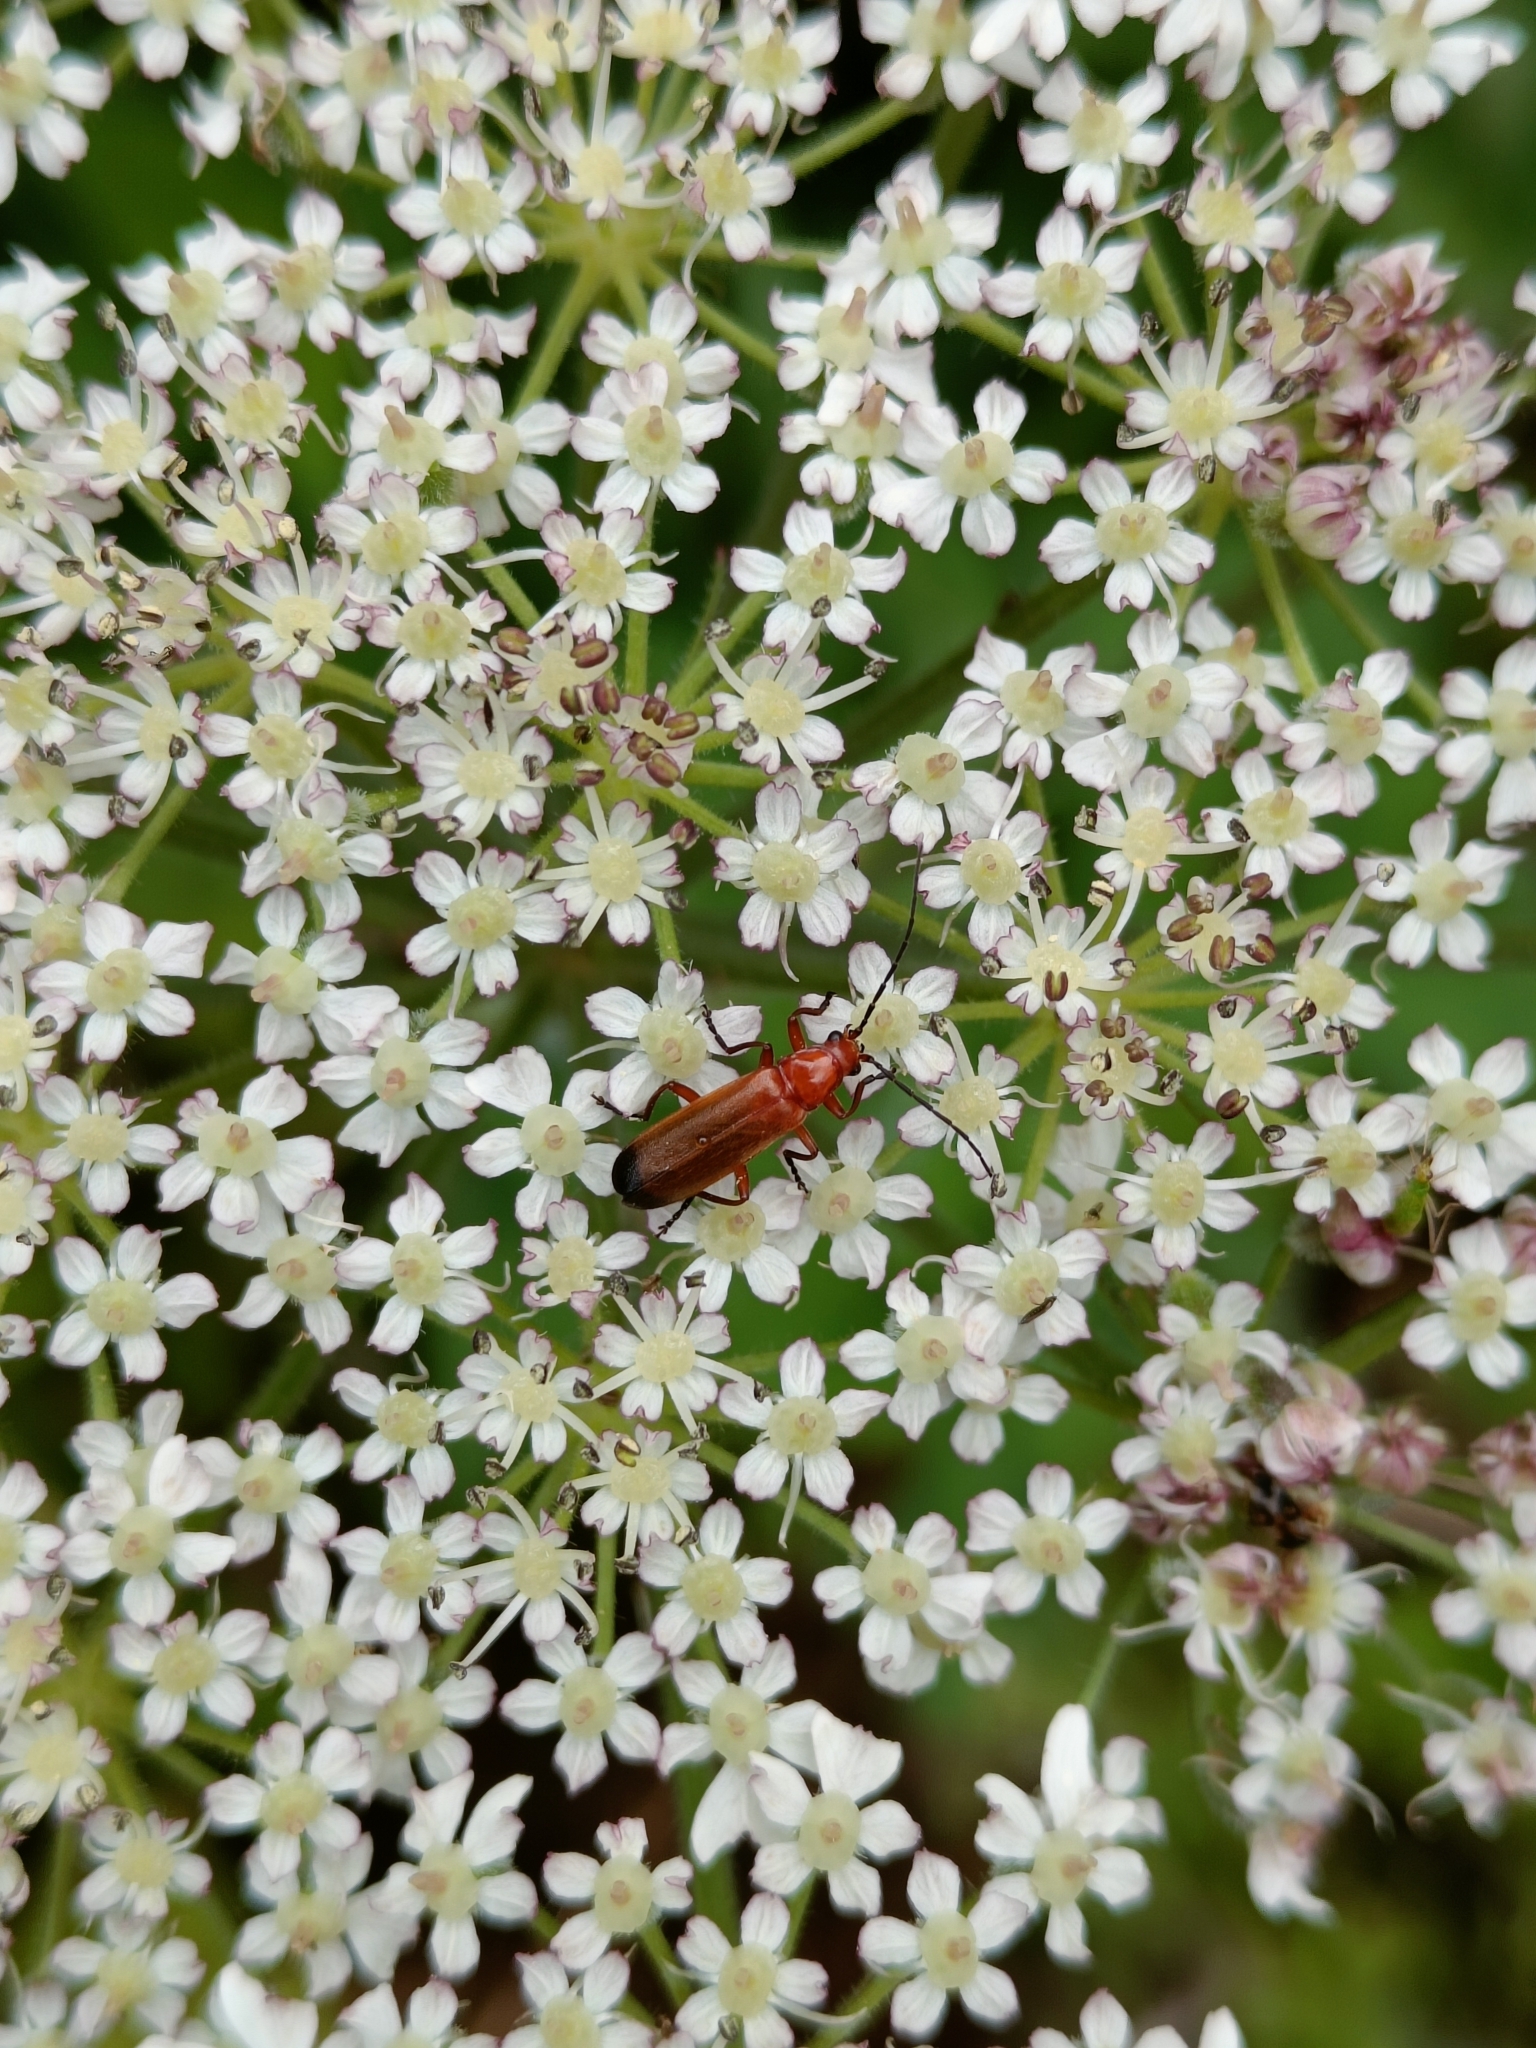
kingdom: Animalia
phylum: Arthropoda
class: Insecta
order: Coleoptera
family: Cantharidae
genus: Rhagonycha
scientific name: Rhagonycha fulva
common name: Common red soldier beetle
